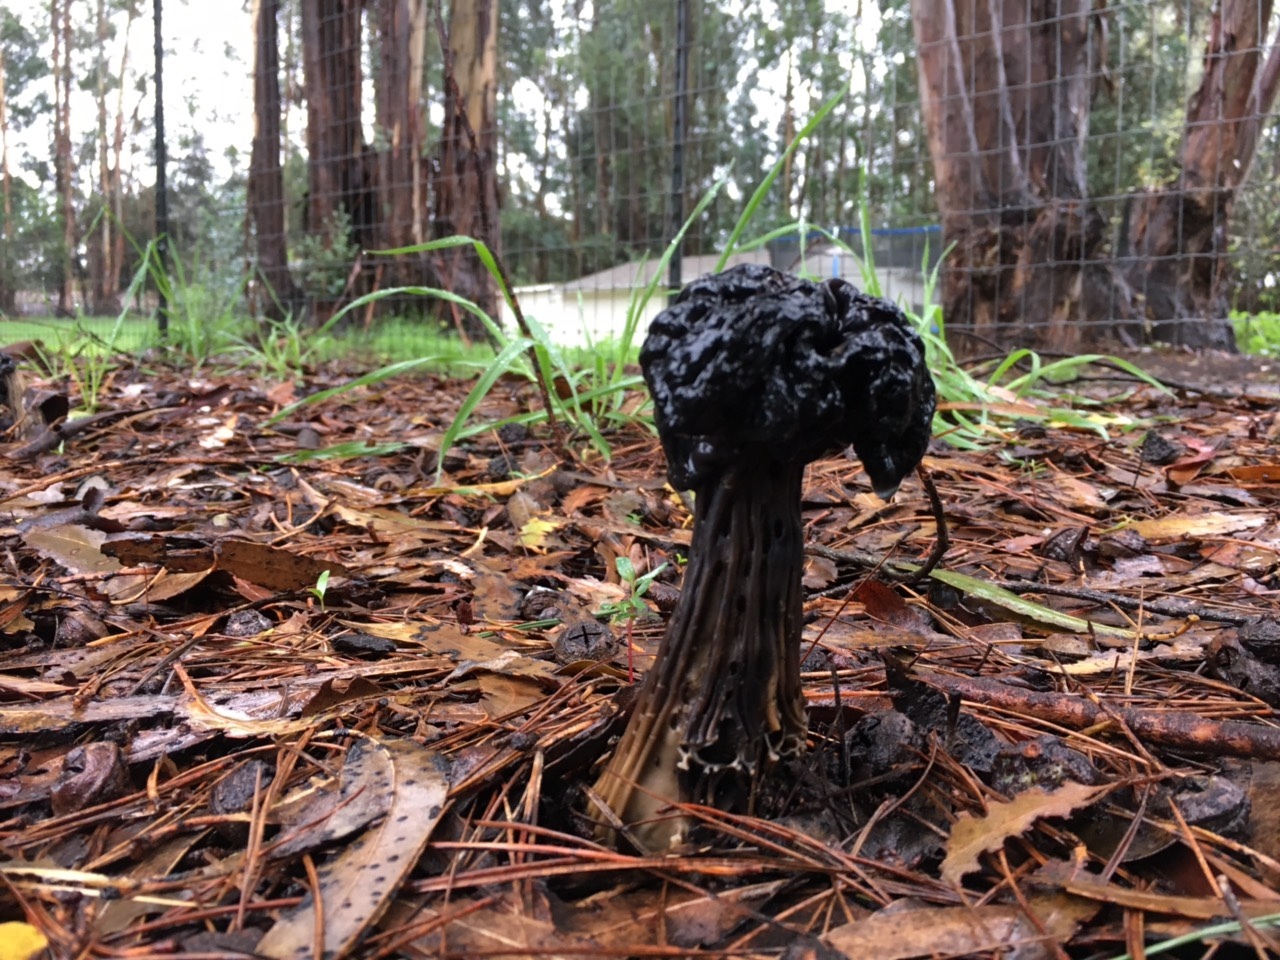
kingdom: Fungi
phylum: Ascomycota
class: Pezizomycetes
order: Pezizales
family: Helvellaceae
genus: Helvella
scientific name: Helvella vespertina
